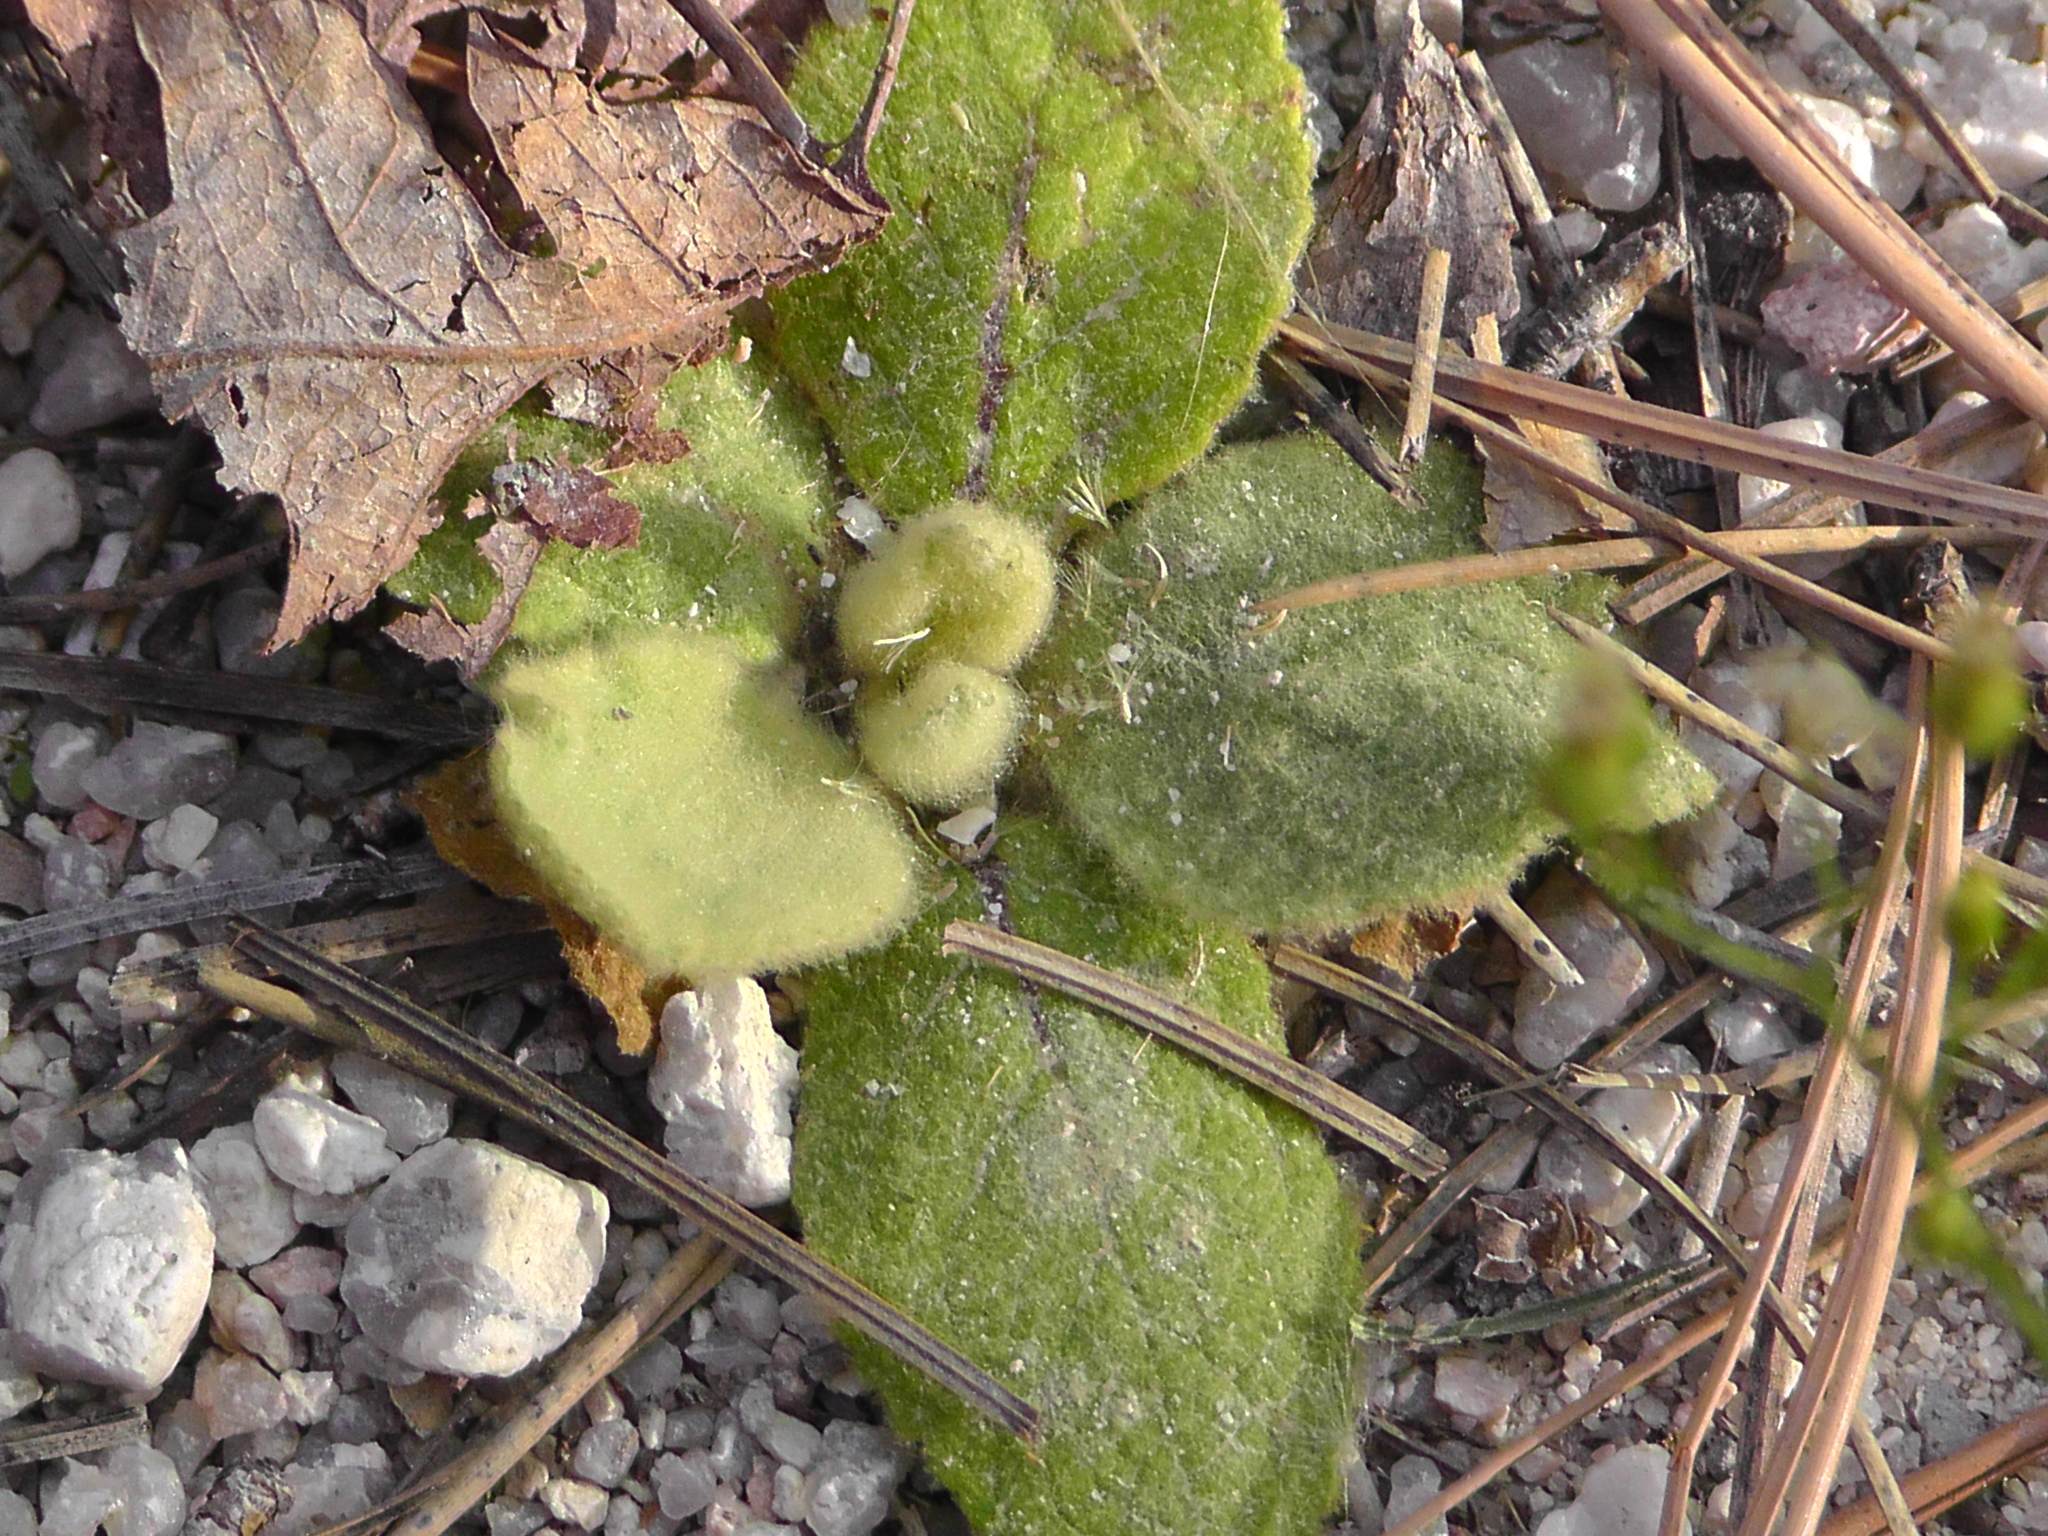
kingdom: Plantae
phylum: Tracheophyta
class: Magnoliopsida
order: Lamiales
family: Scrophulariaceae
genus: Verbascum
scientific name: Verbascum thapsus
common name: Common mullein
